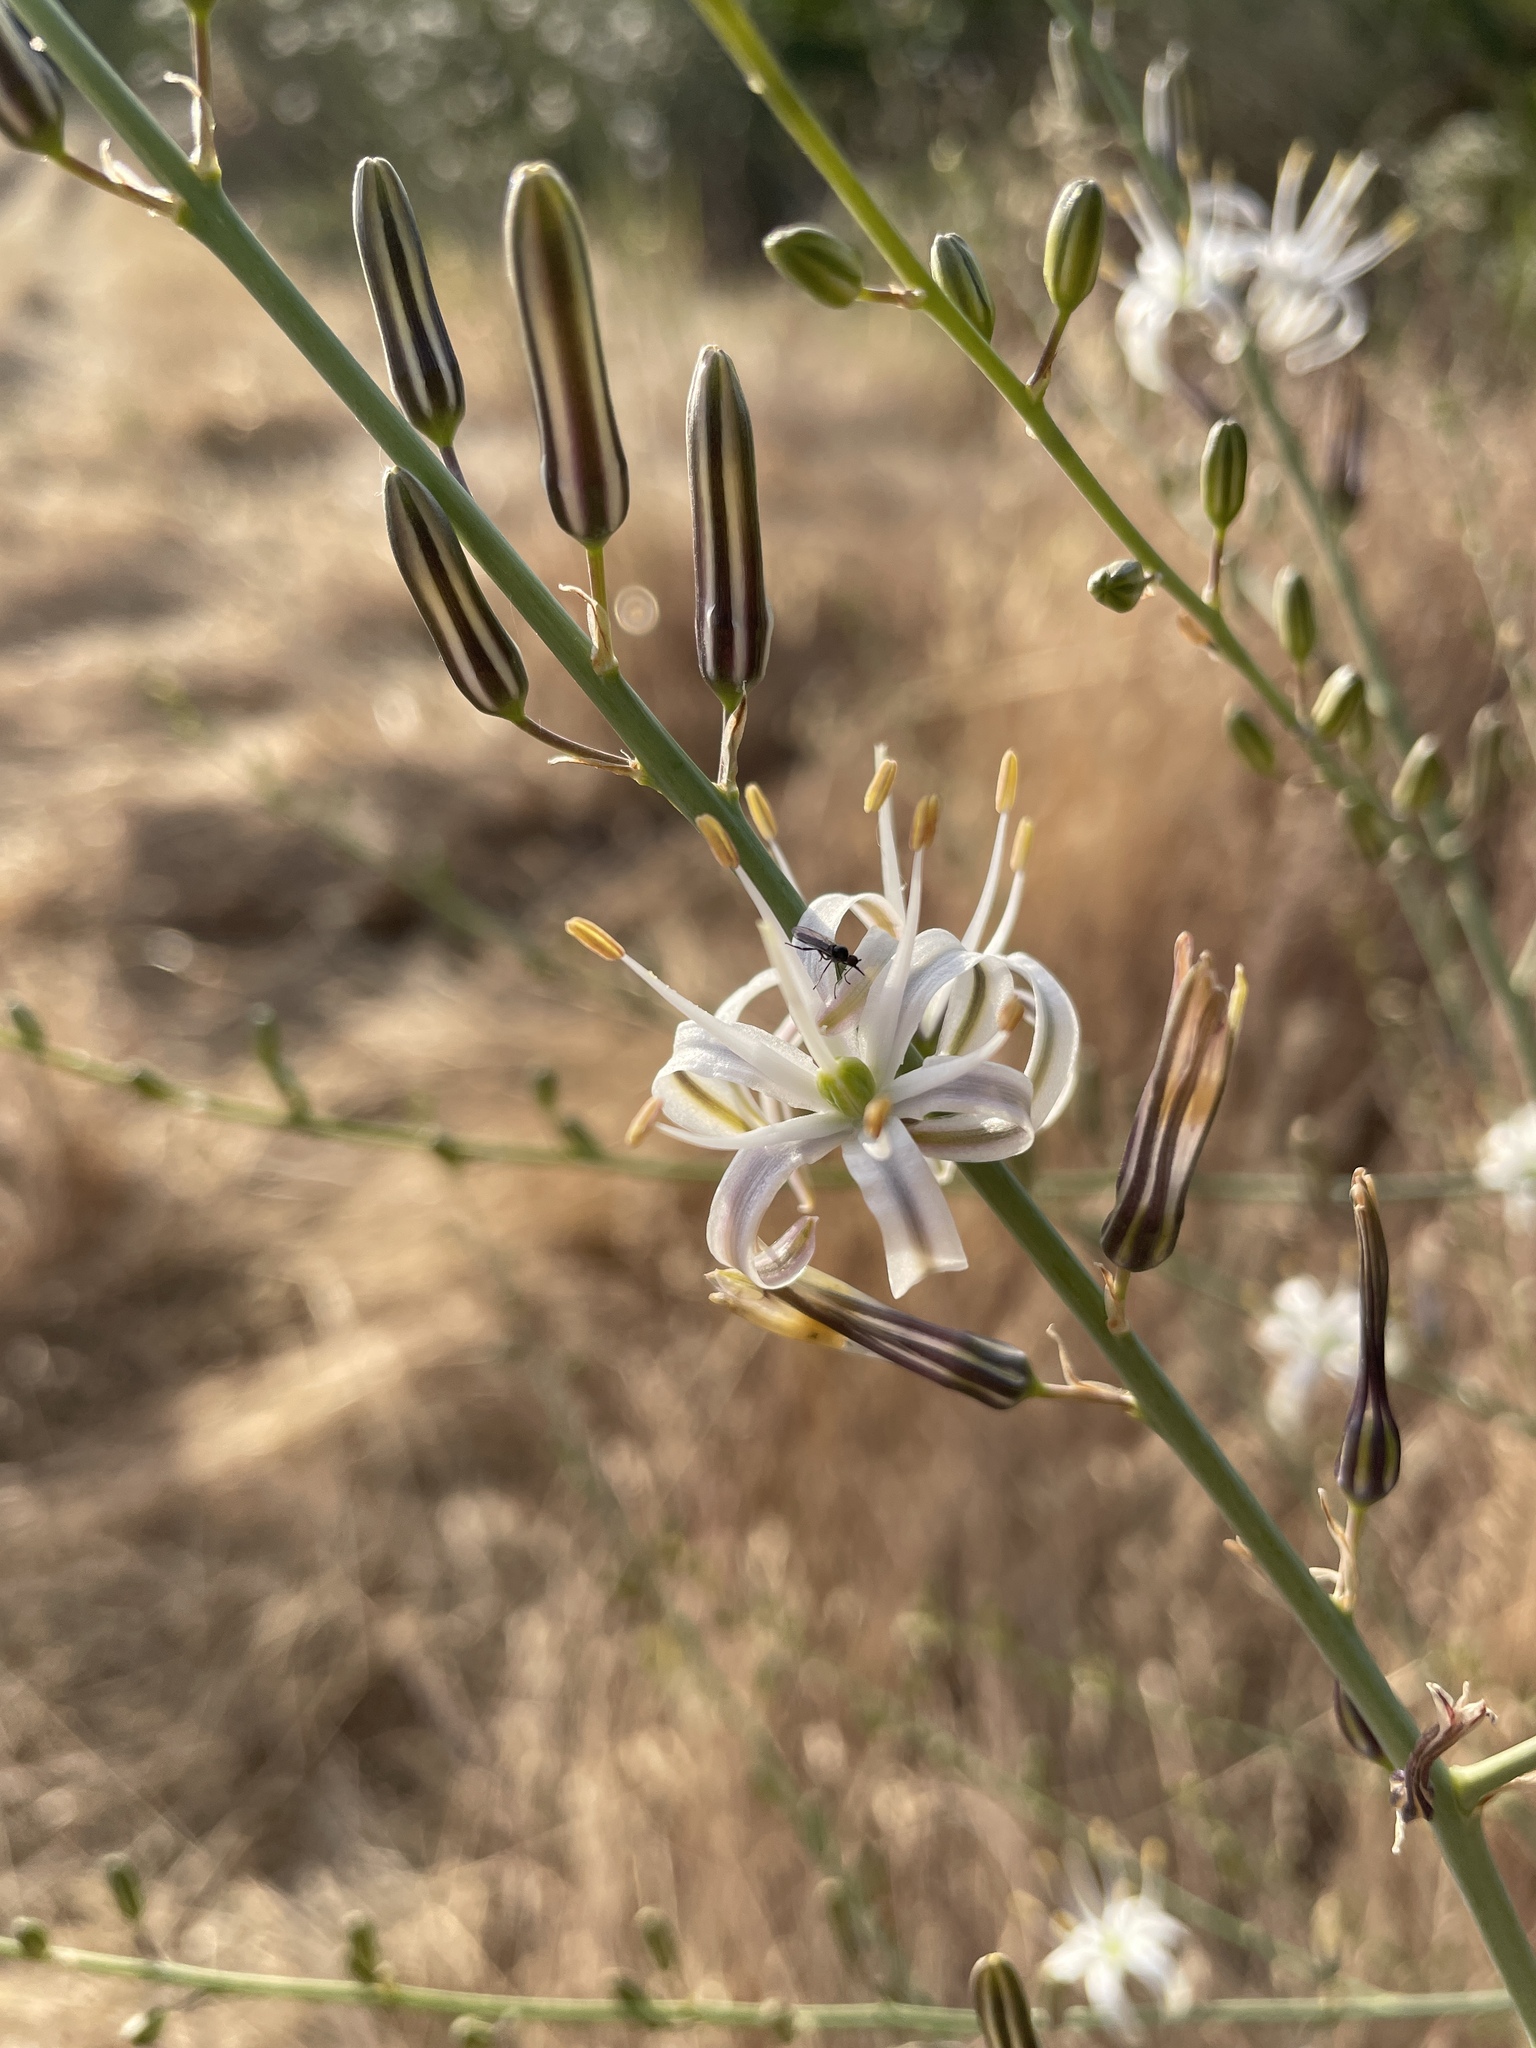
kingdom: Plantae
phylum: Tracheophyta
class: Liliopsida
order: Asparagales
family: Asparagaceae
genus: Chlorogalum
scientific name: Chlorogalum pomeridianum
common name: Amole
